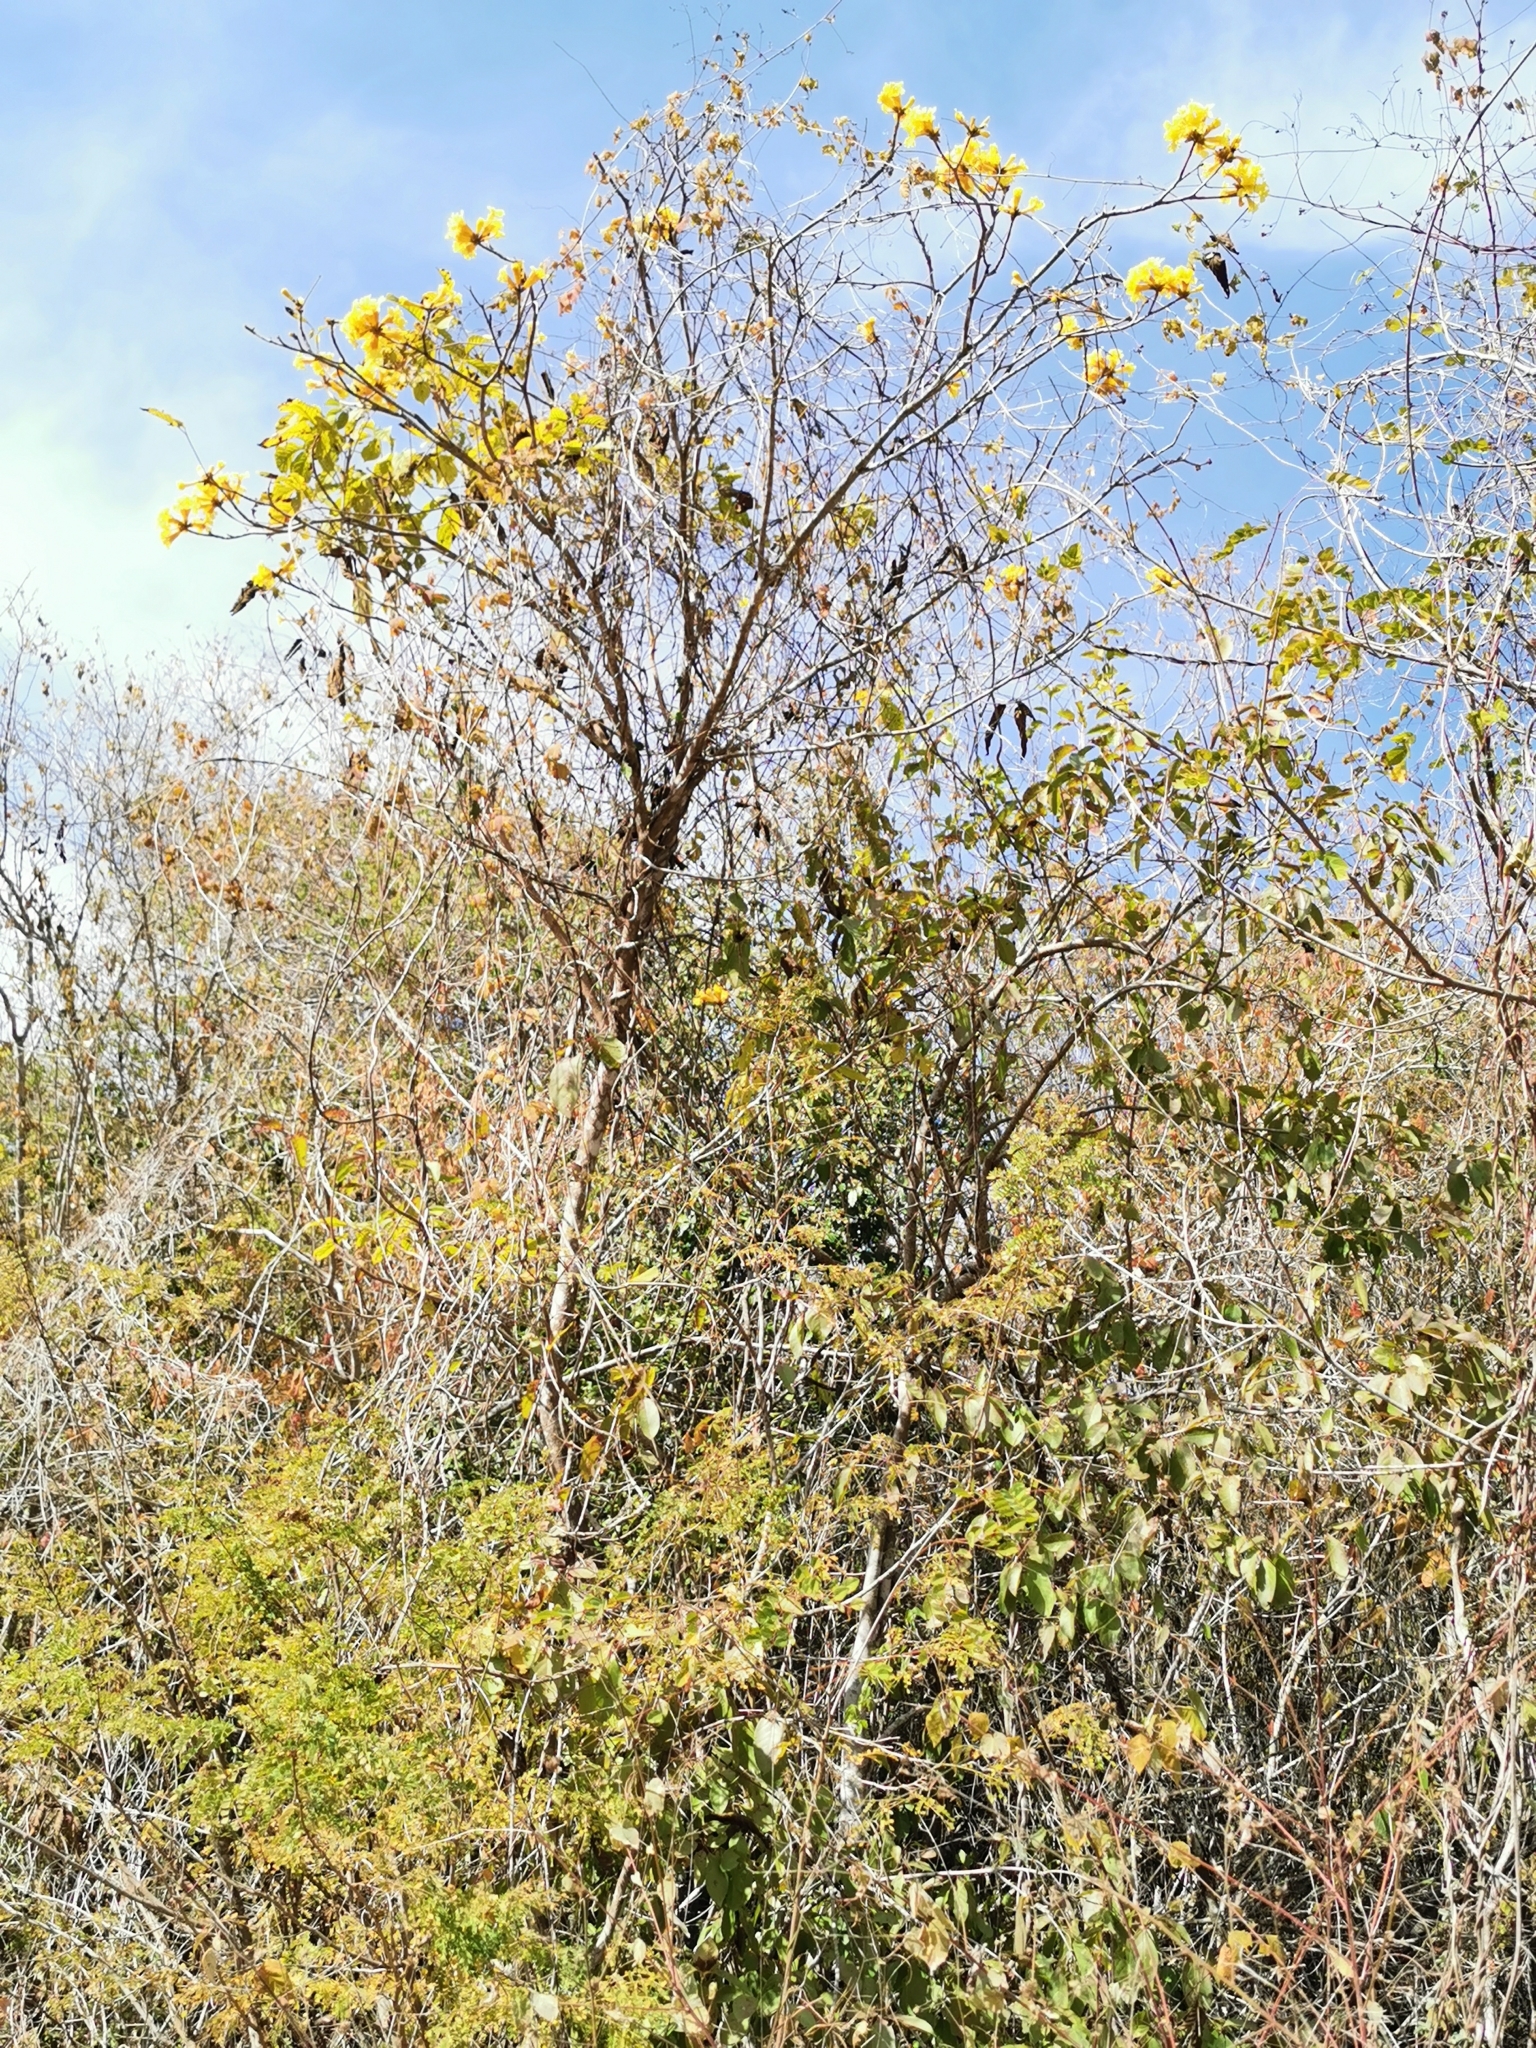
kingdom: Plantae
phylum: Tracheophyta
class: Magnoliopsida
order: Lamiales
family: Bignoniaceae
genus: Handroanthus
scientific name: Handroanthus chrysanthus
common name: Trumpet trees
